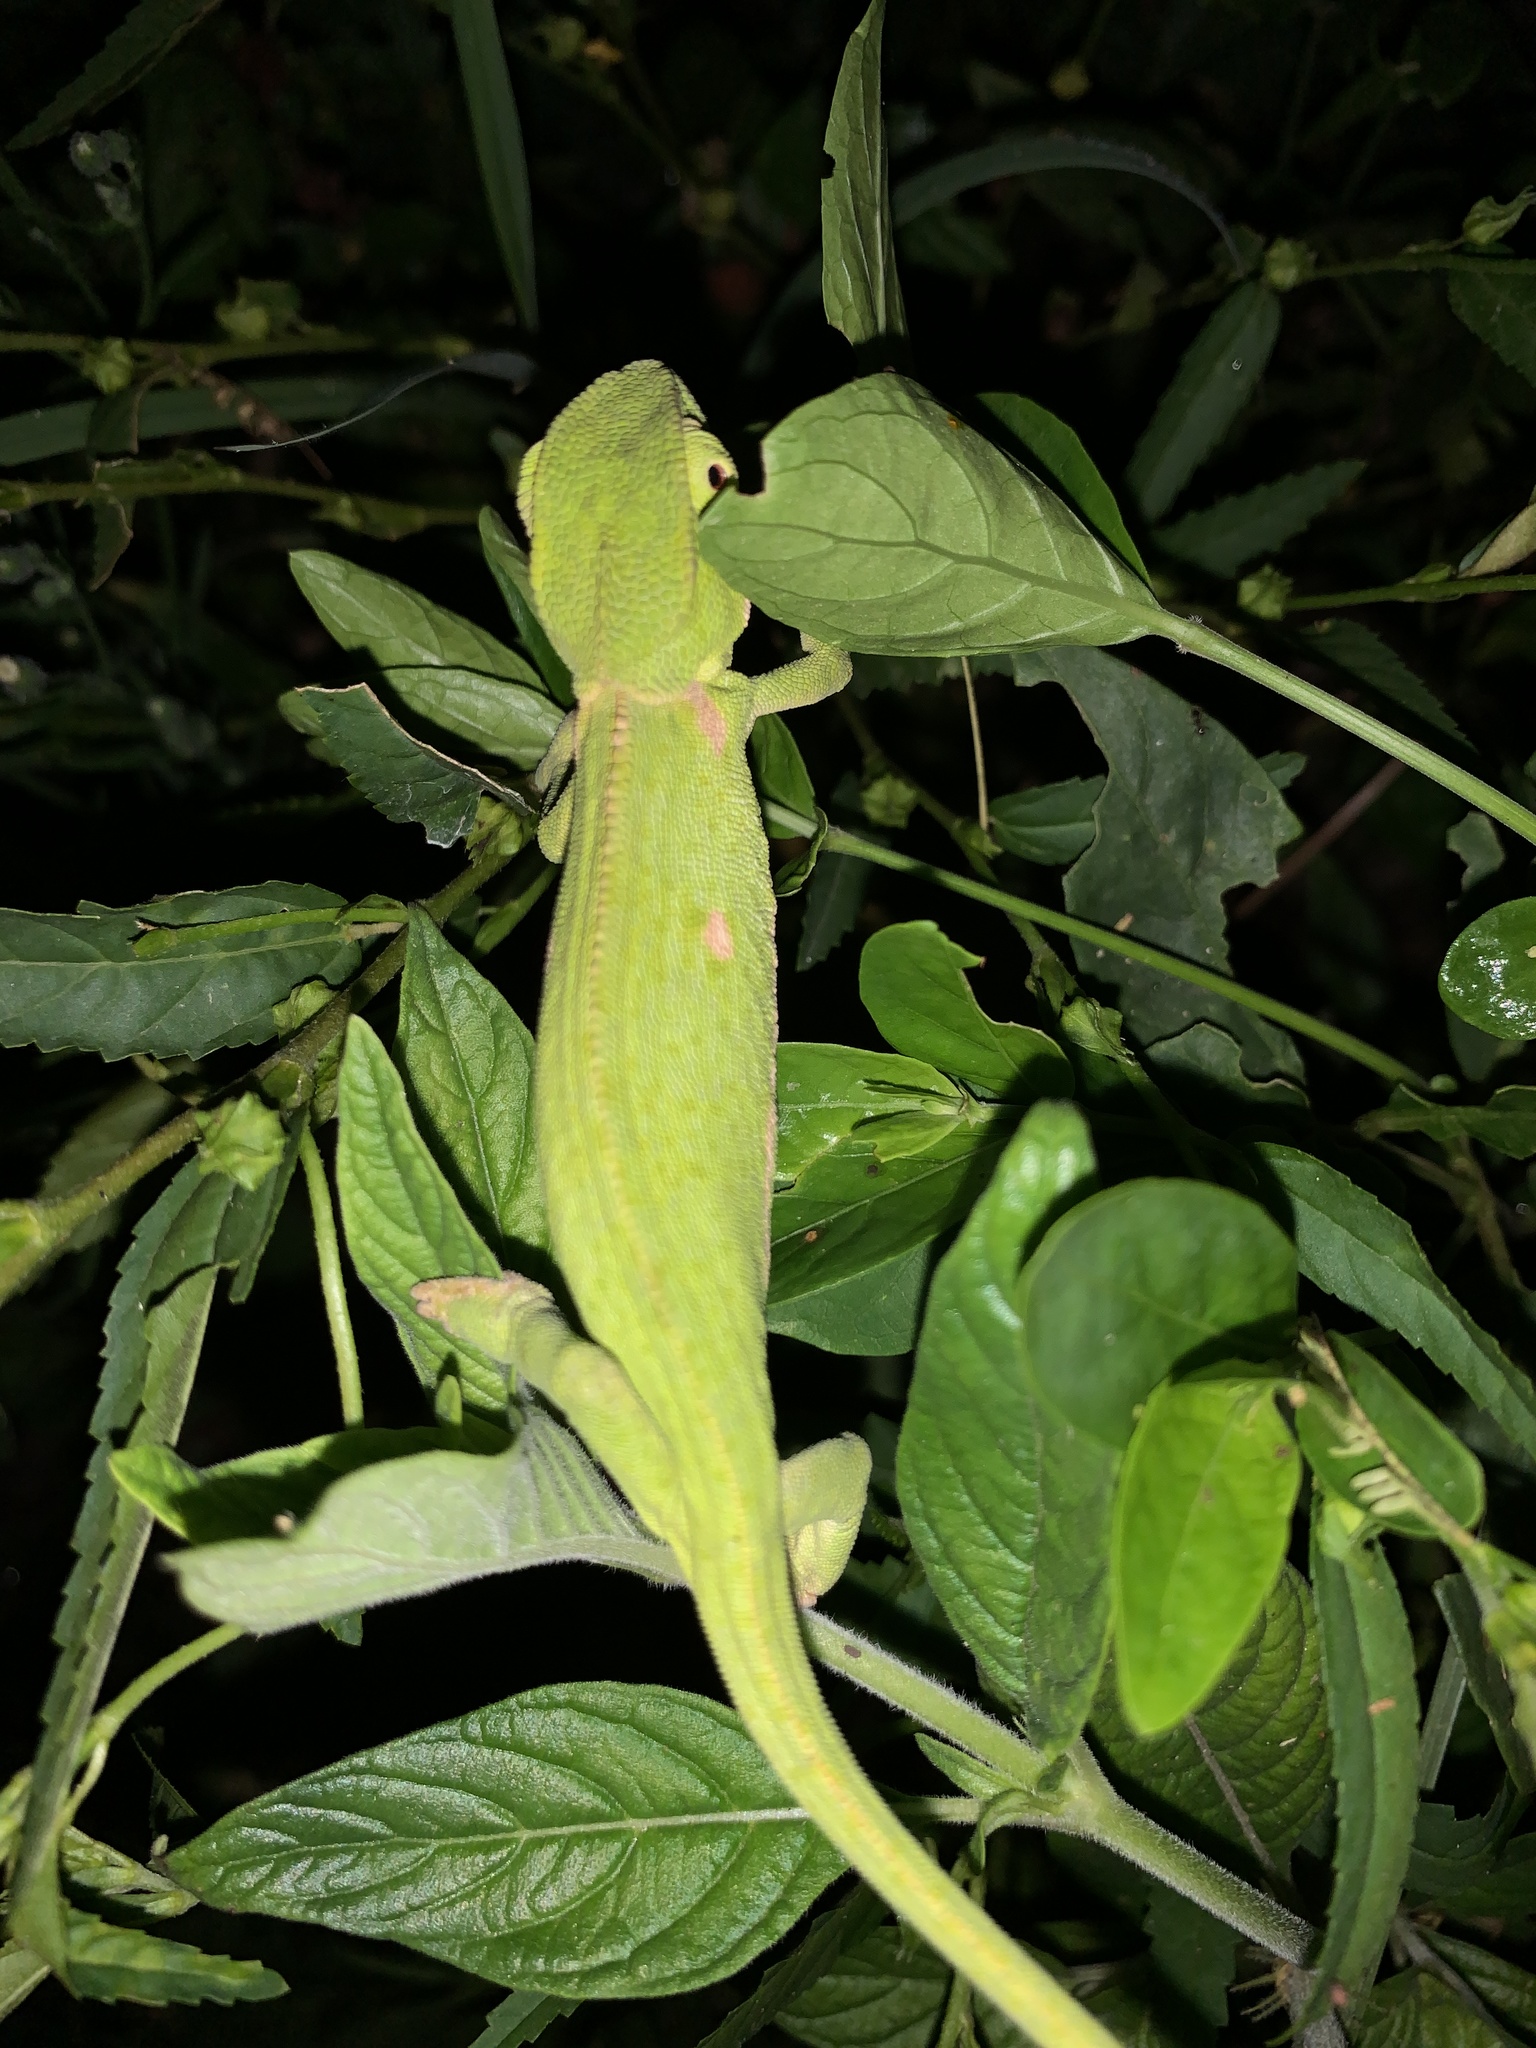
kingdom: Animalia
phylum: Chordata
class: Squamata
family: Chamaeleonidae
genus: Chamaeleo
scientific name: Chamaeleo dilepis
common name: Flapneck chameleon
